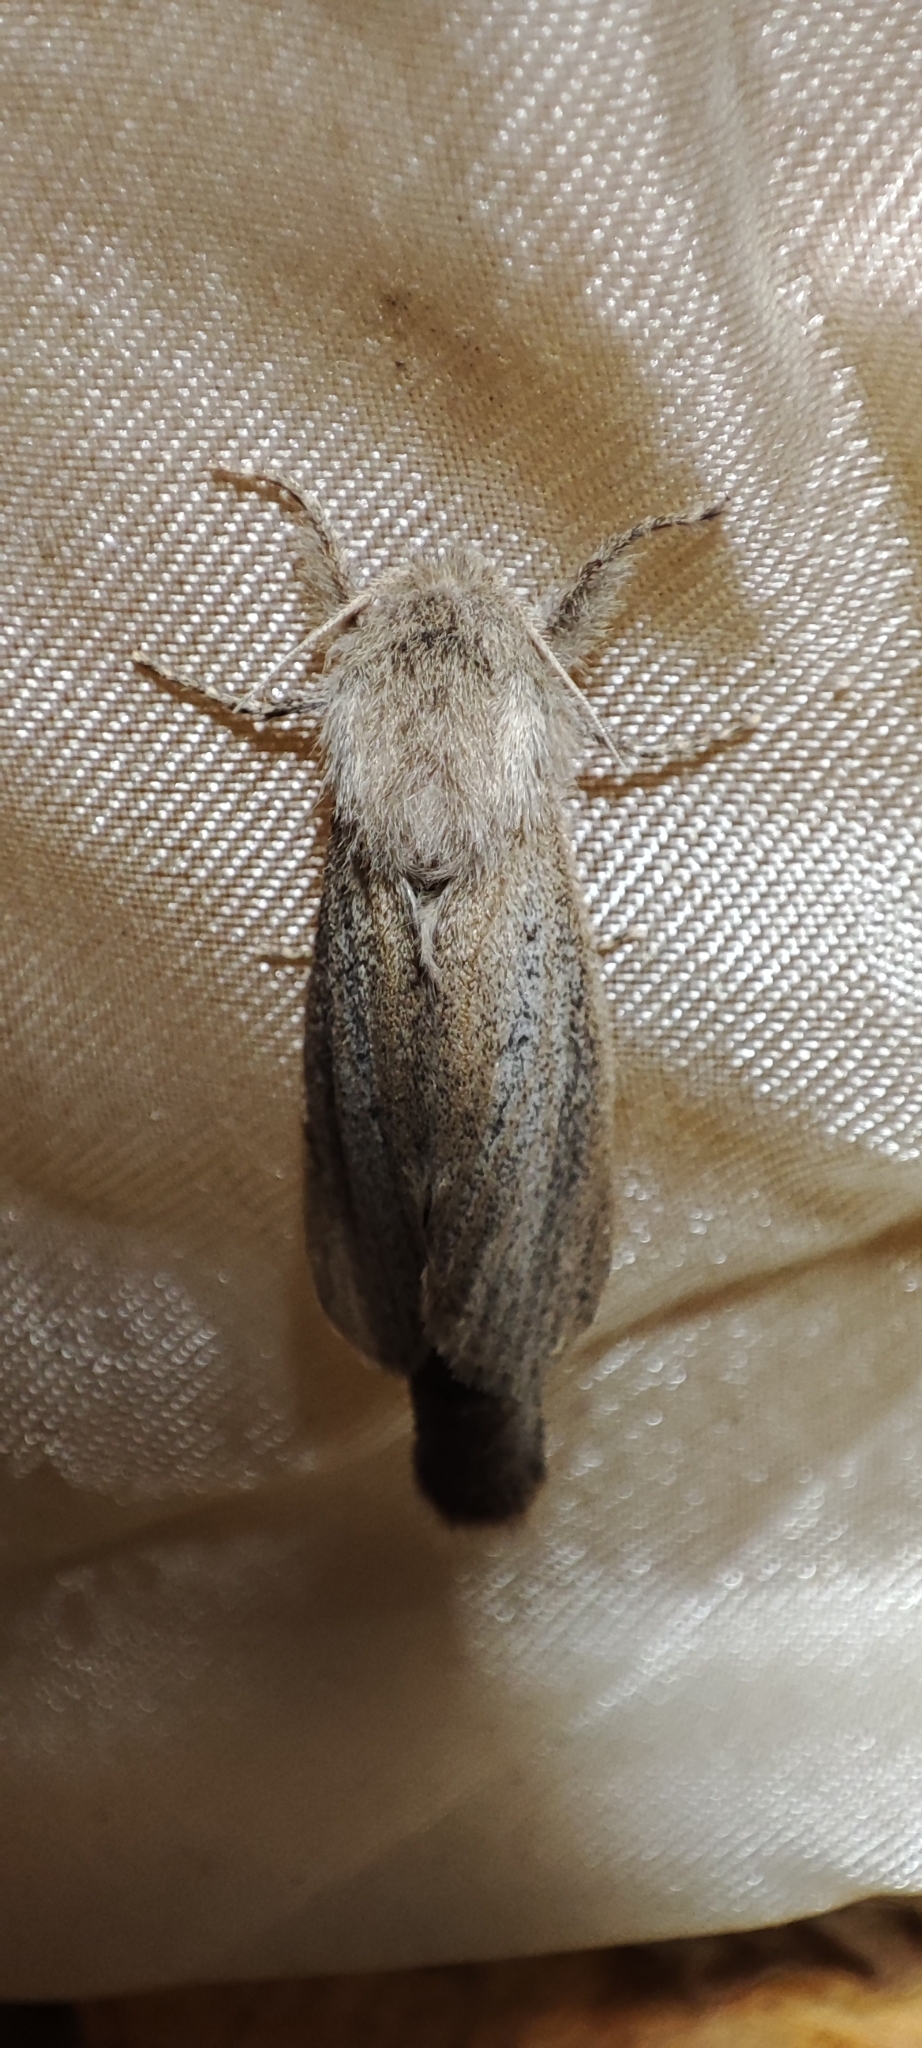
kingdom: Animalia
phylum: Arthropoda
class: Insecta
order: Lepidoptera
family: Cossidae
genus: Phragmataecia
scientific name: Phragmataecia castaneae
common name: Reed leopard
